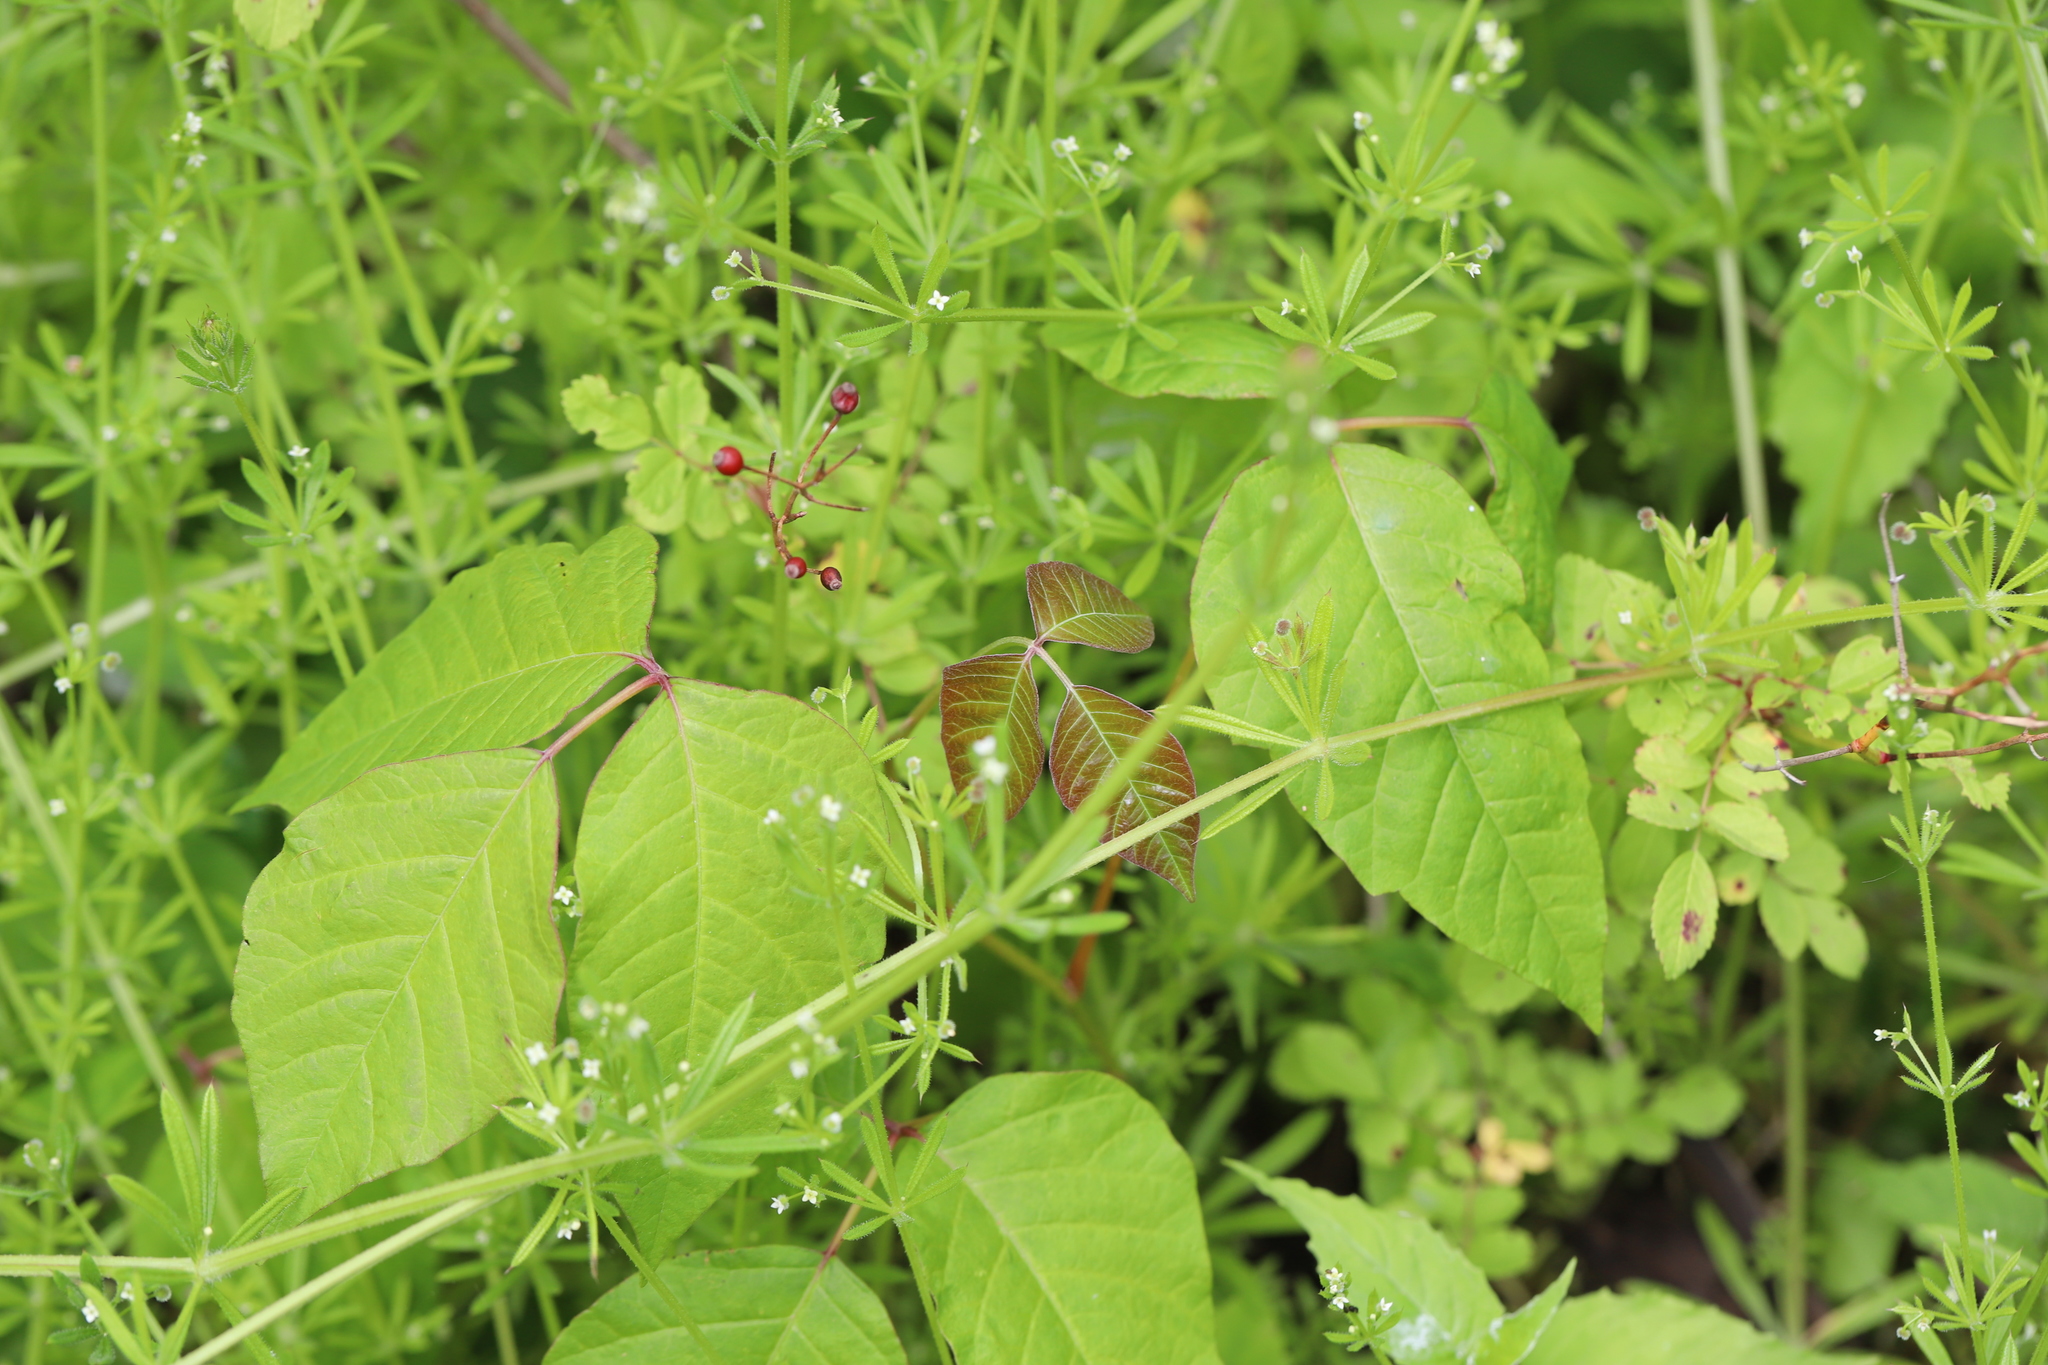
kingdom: Plantae
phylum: Tracheophyta
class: Magnoliopsida
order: Sapindales
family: Anacardiaceae
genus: Toxicodendron
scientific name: Toxicodendron radicans
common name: Poison ivy
